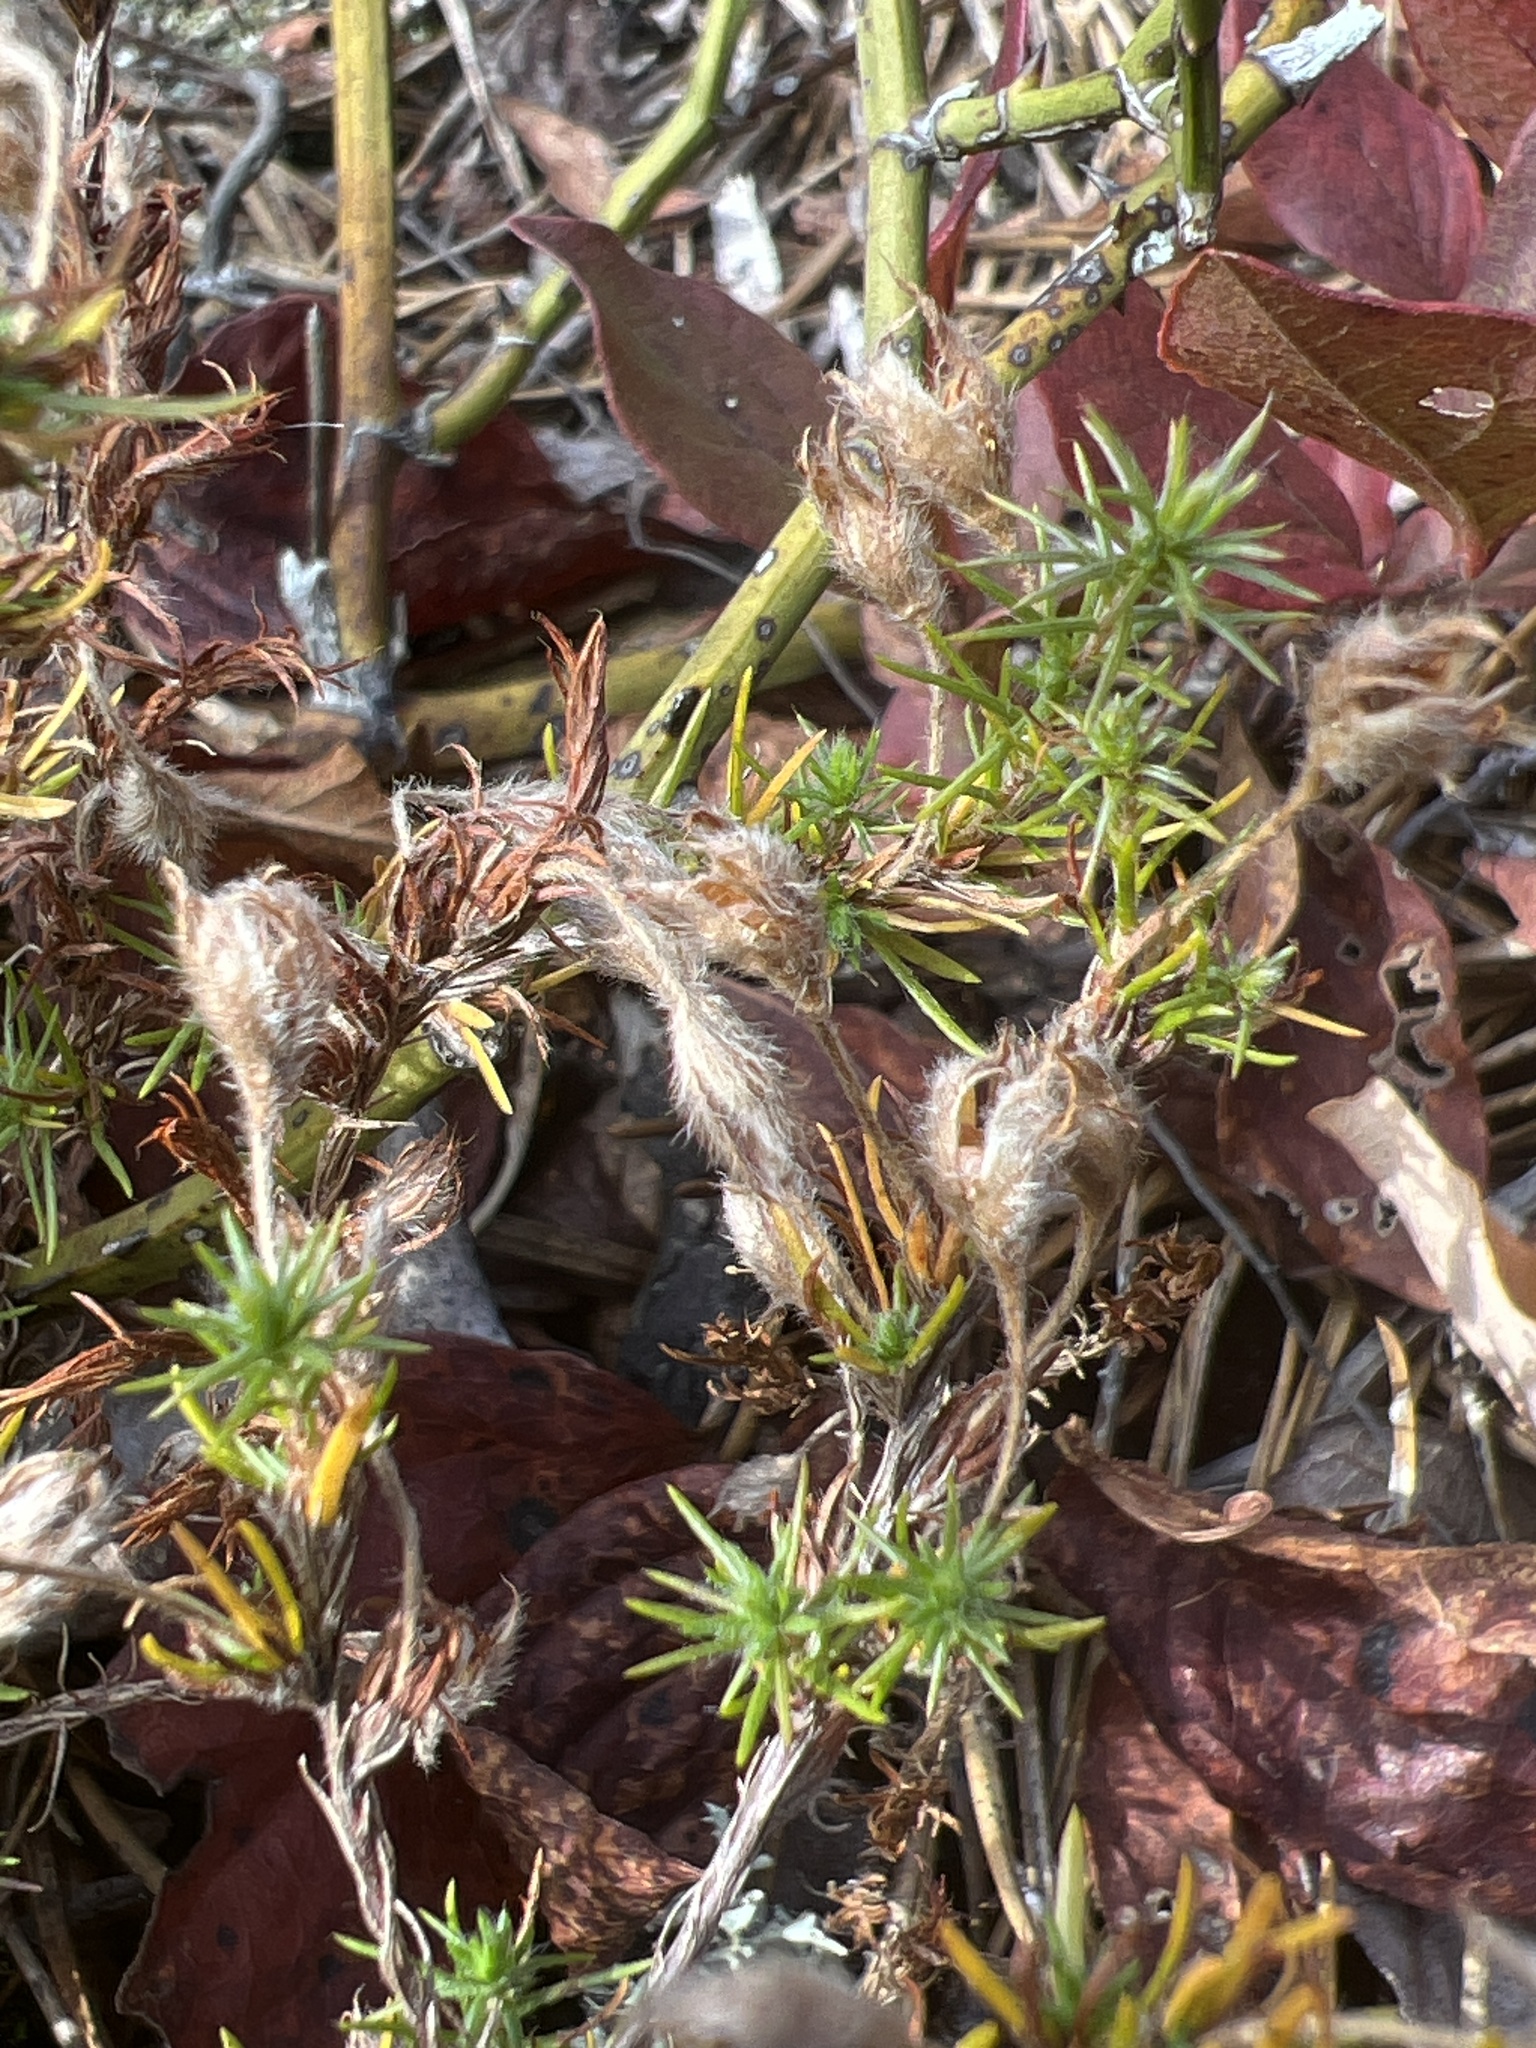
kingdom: Plantae
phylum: Tracheophyta
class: Magnoliopsida
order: Malvales
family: Cistaceae
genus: Hudsonia
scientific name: Hudsonia montana
